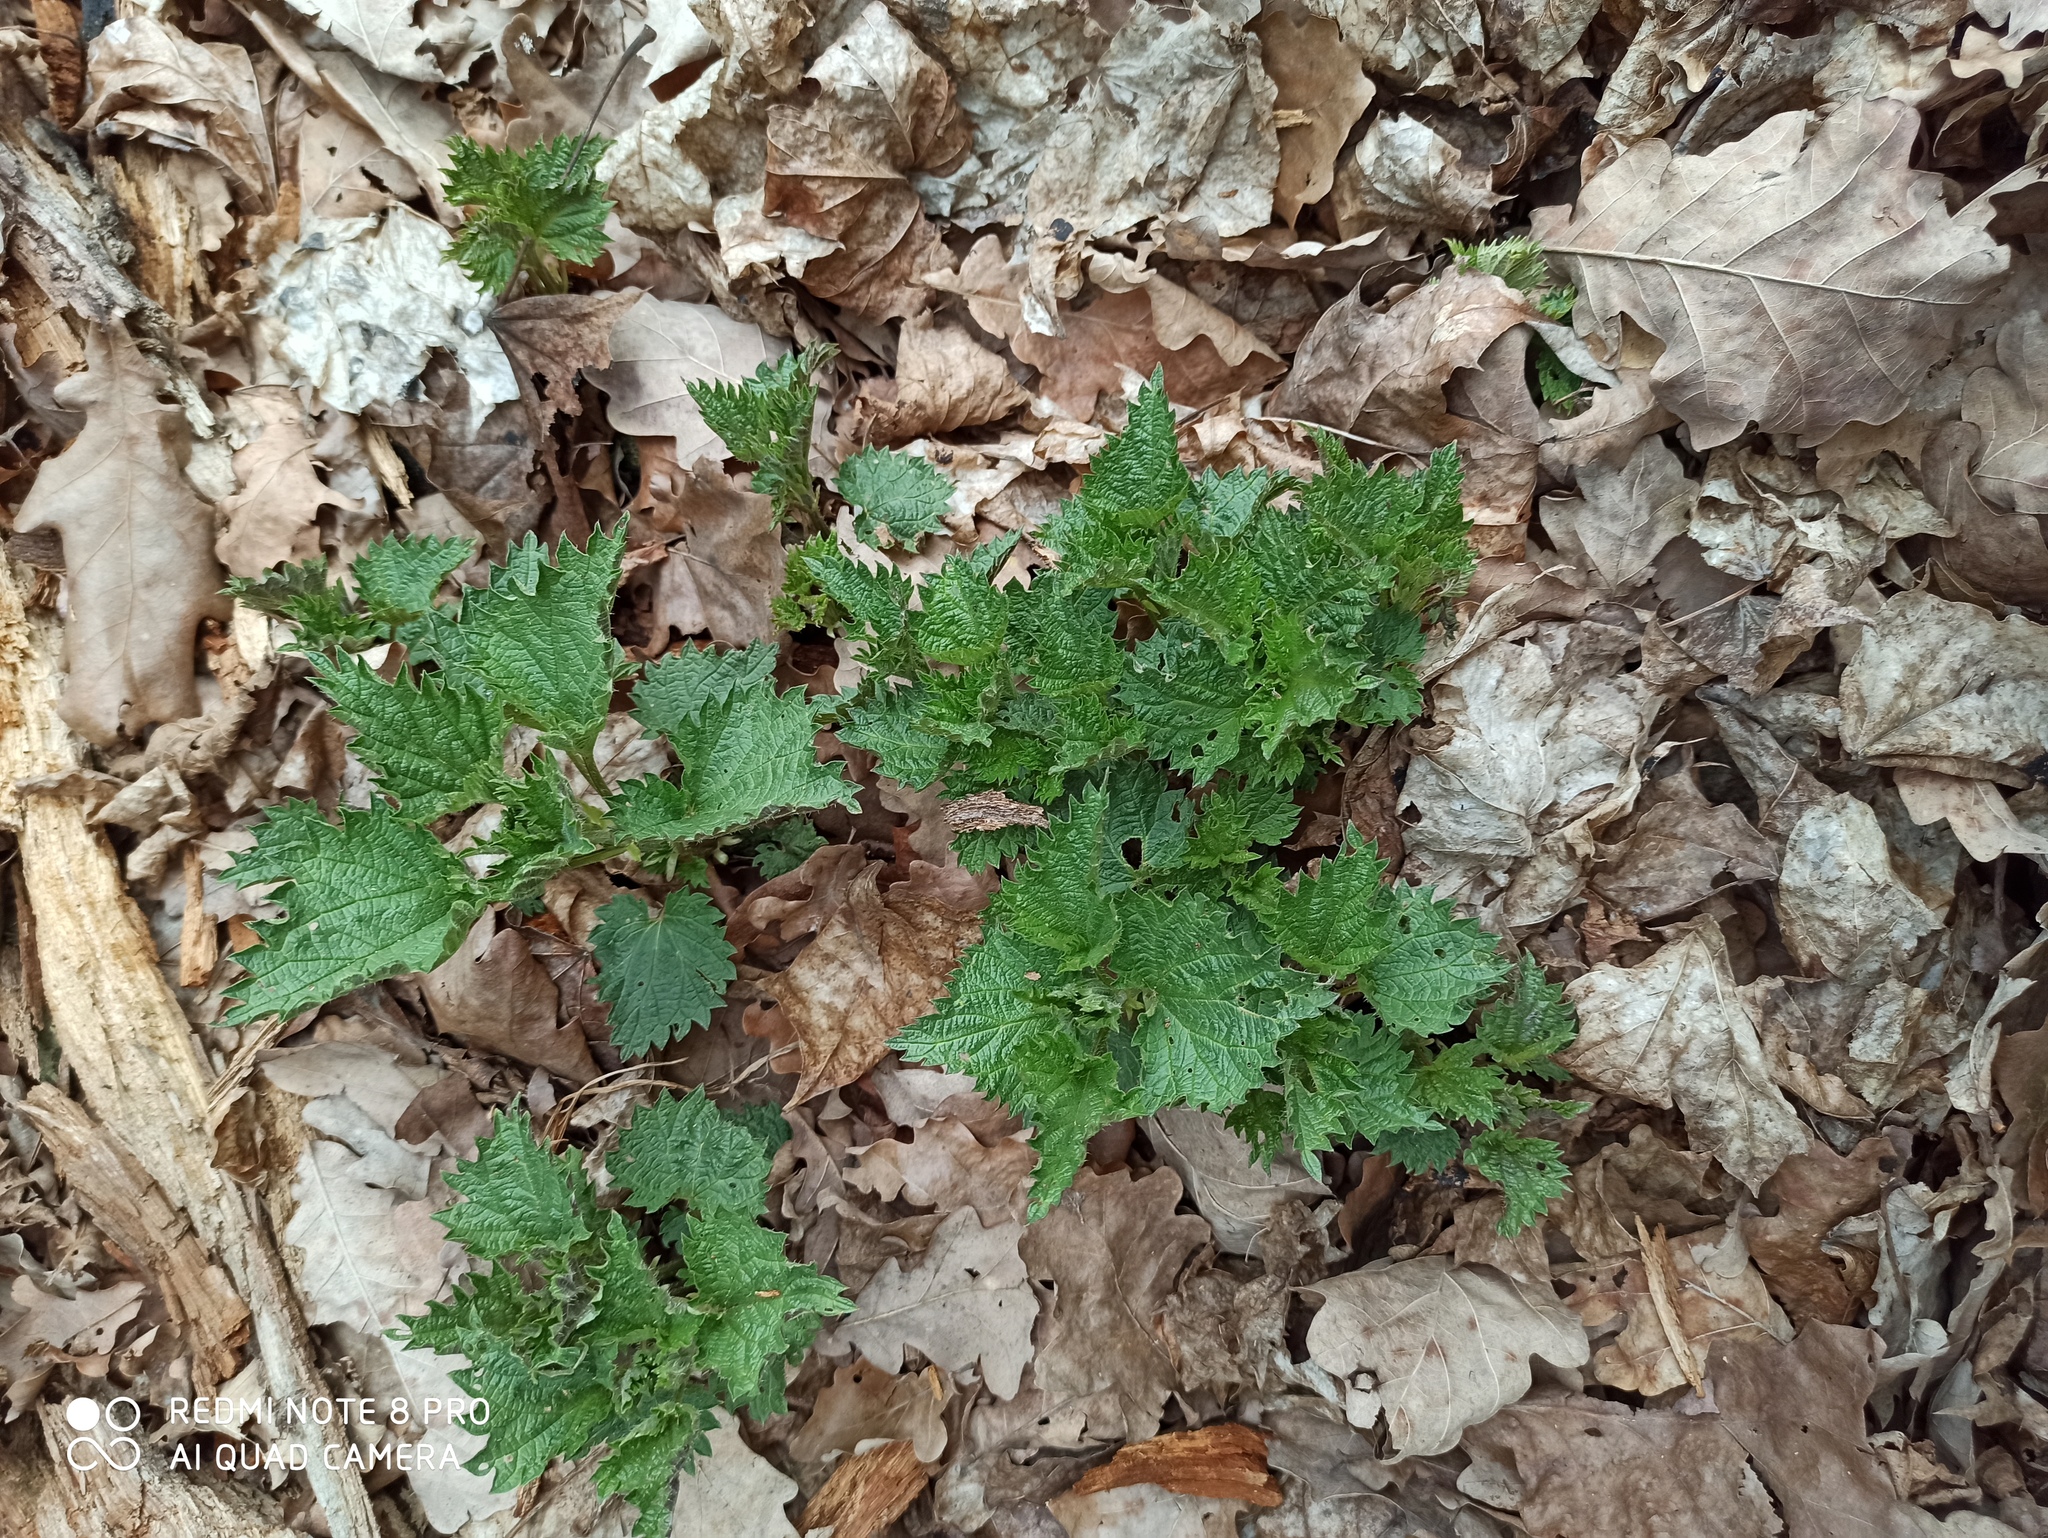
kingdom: Plantae
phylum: Tracheophyta
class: Magnoliopsida
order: Rosales
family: Urticaceae
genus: Urtica
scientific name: Urtica dioica
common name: Common nettle
